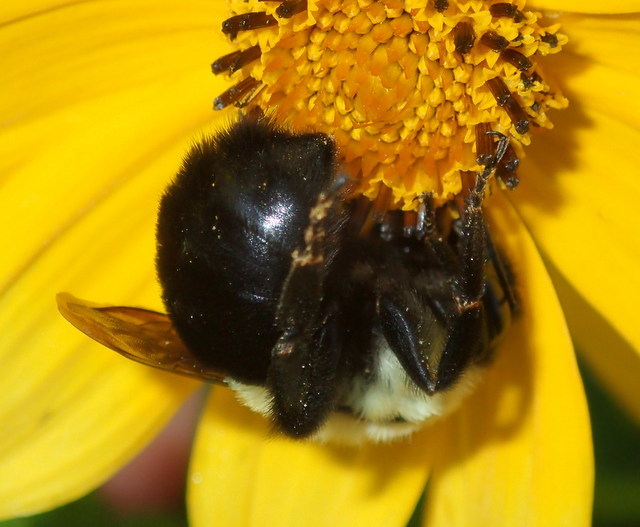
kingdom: Animalia
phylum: Arthropoda
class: Insecta
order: Hymenoptera
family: Apidae
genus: Bombus
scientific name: Bombus impatiens
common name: Common eastern bumble bee
